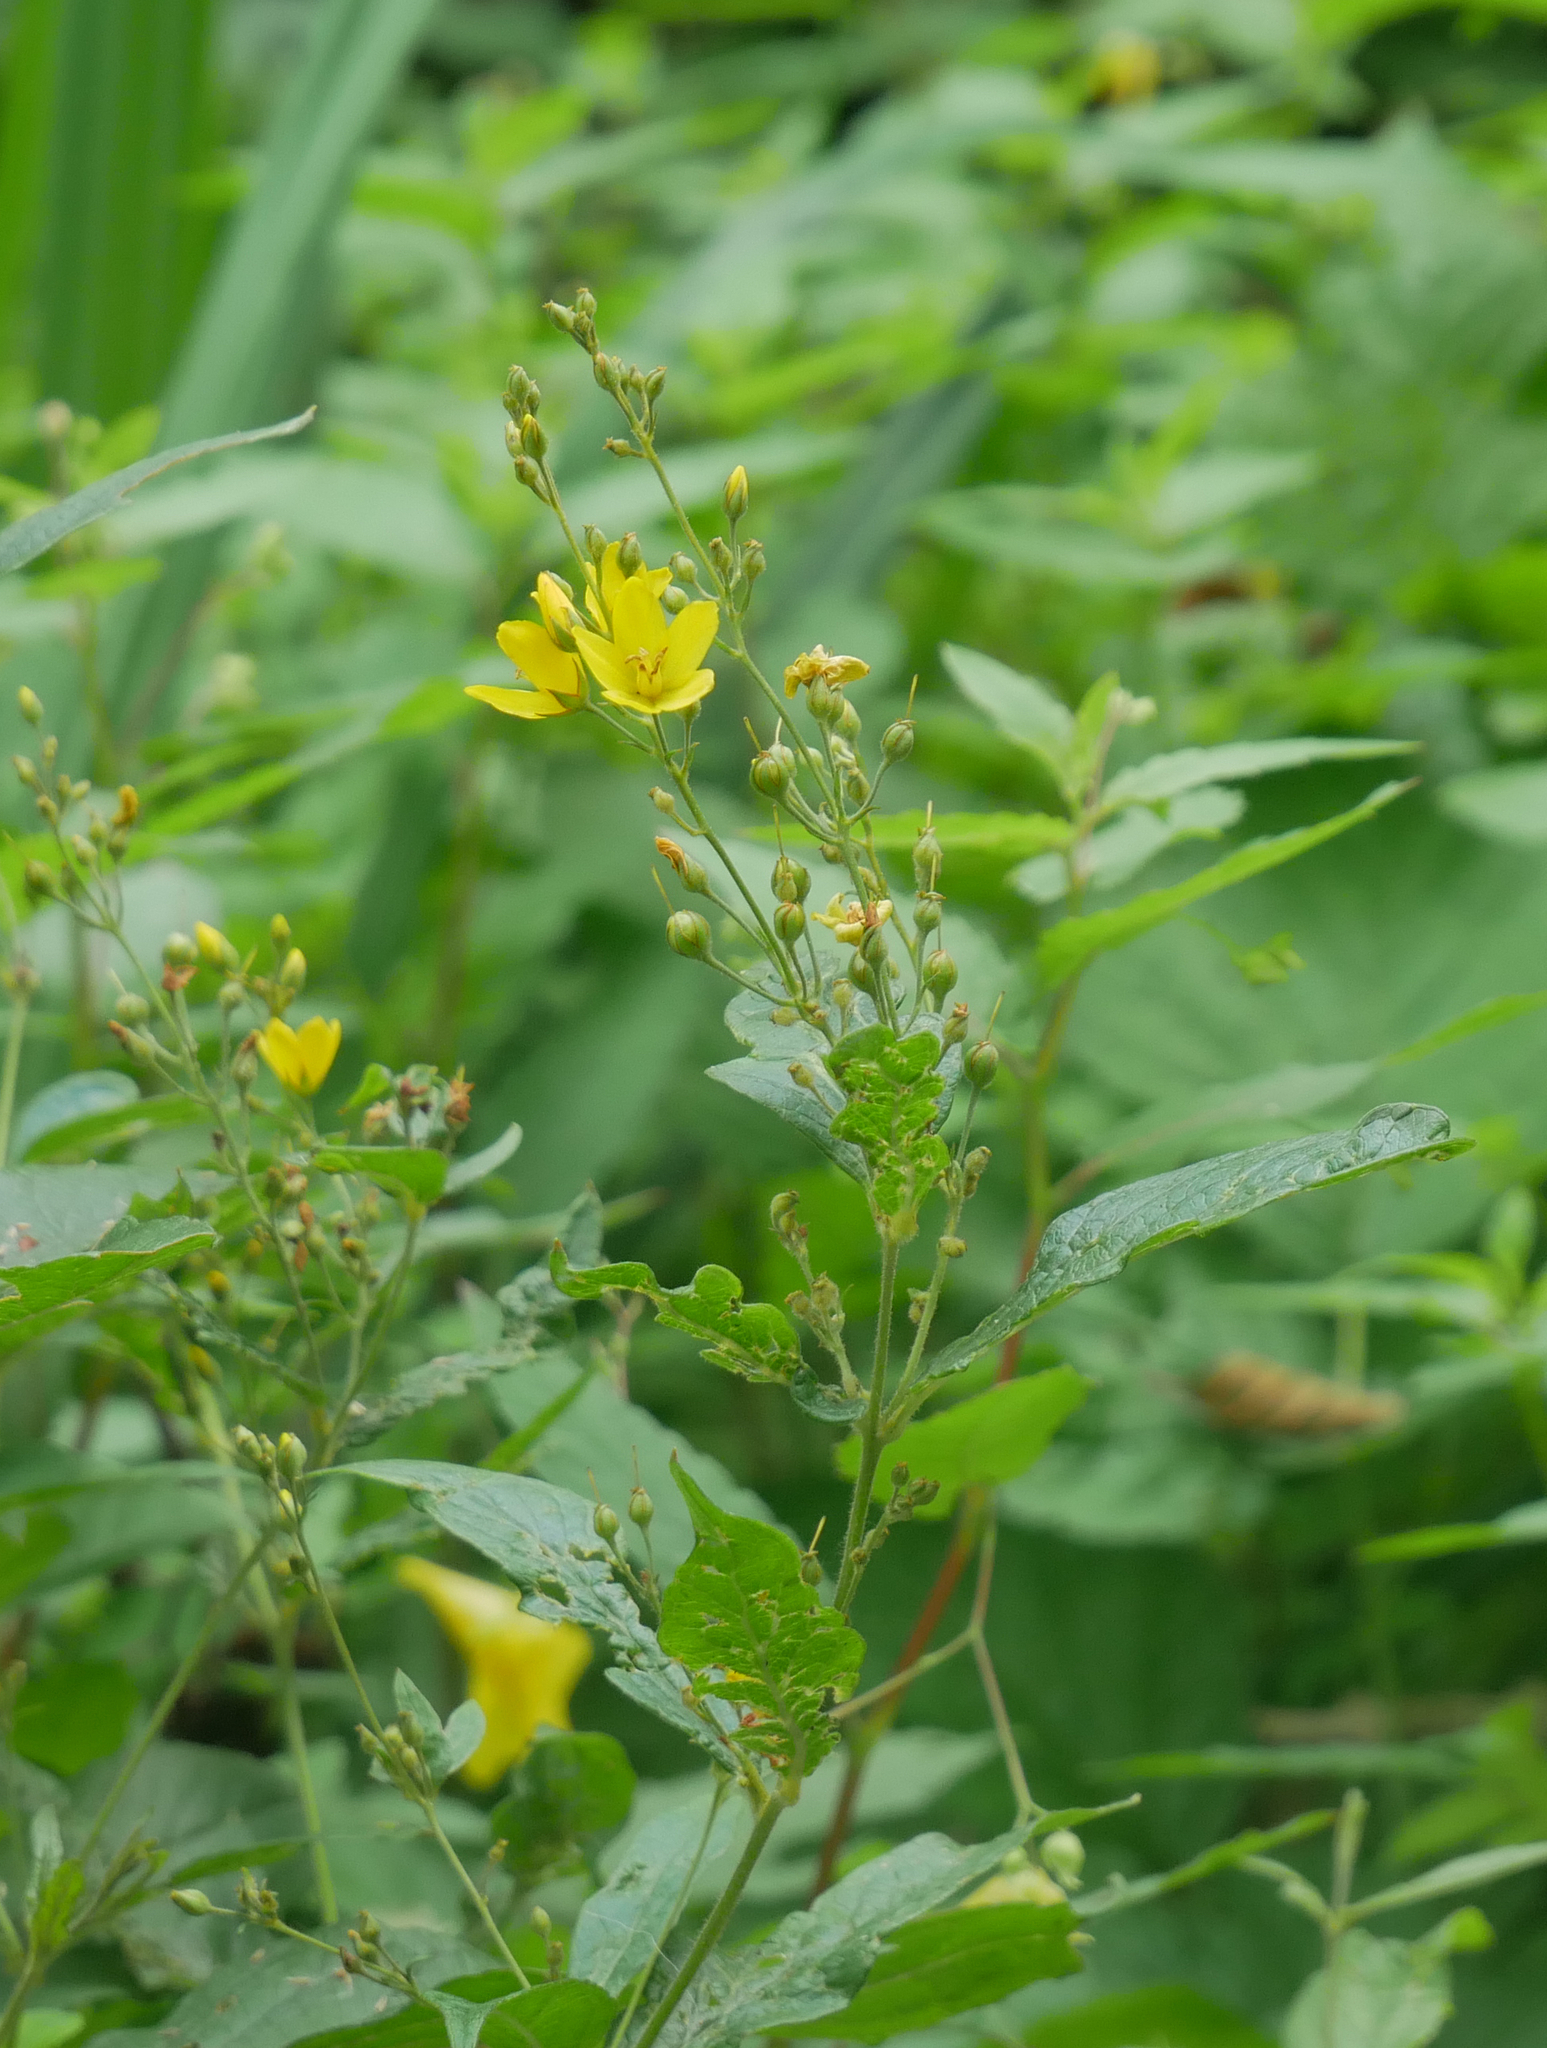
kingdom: Plantae
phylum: Tracheophyta
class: Magnoliopsida
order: Ericales
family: Primulaceae
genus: Lysimachia
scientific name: Lysimachia vulgaris
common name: Yellow loosestrife
